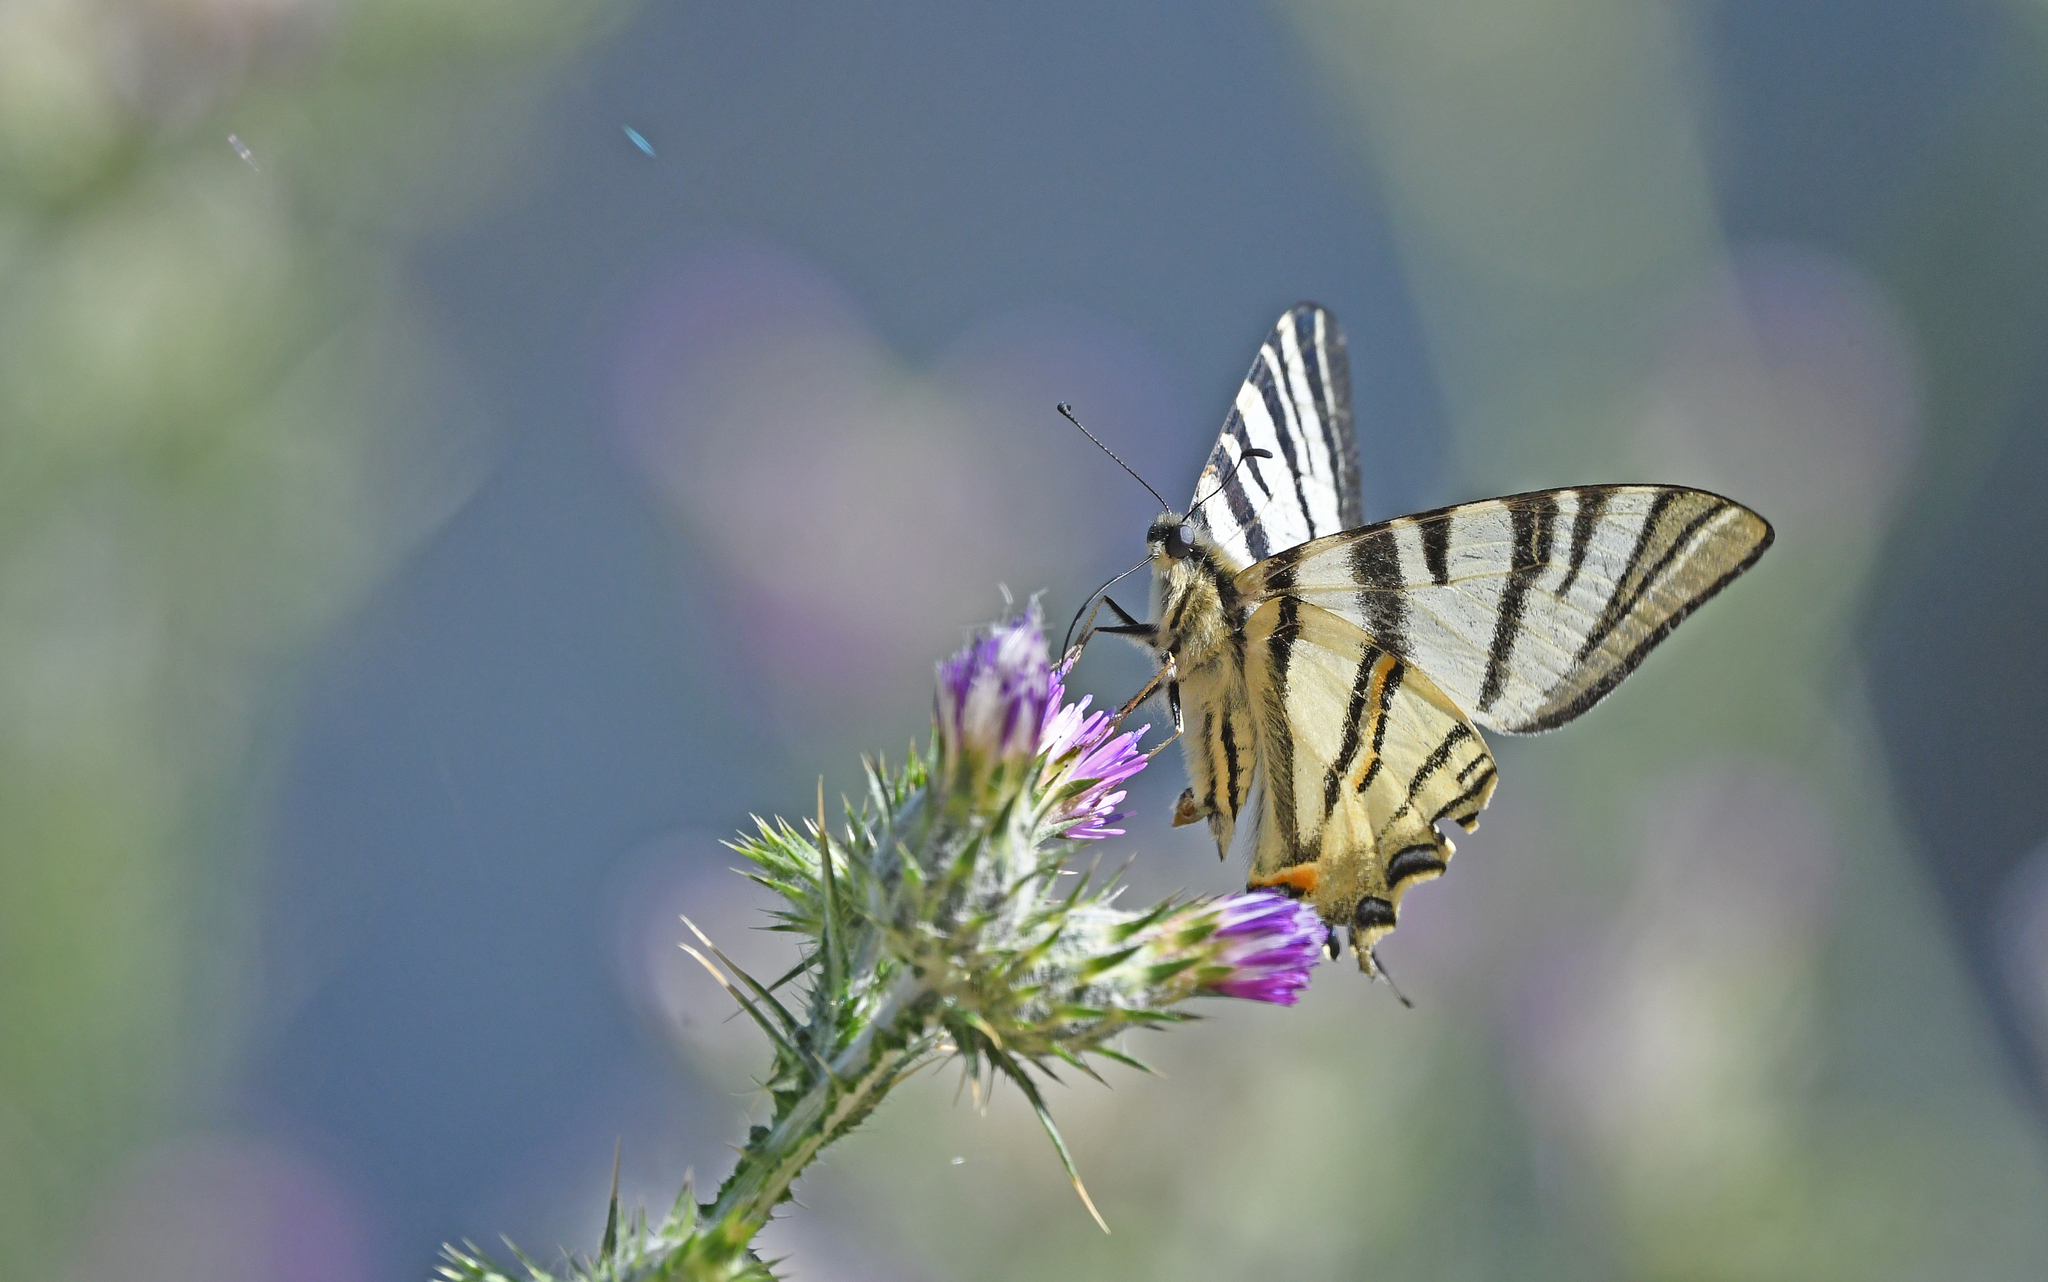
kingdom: Animalia
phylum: Arthropoda
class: Insecta
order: Lepidoptera
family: Papilionidae
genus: Iphiclides
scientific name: Iphiclides podalirius
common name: Scarce swallowtail
